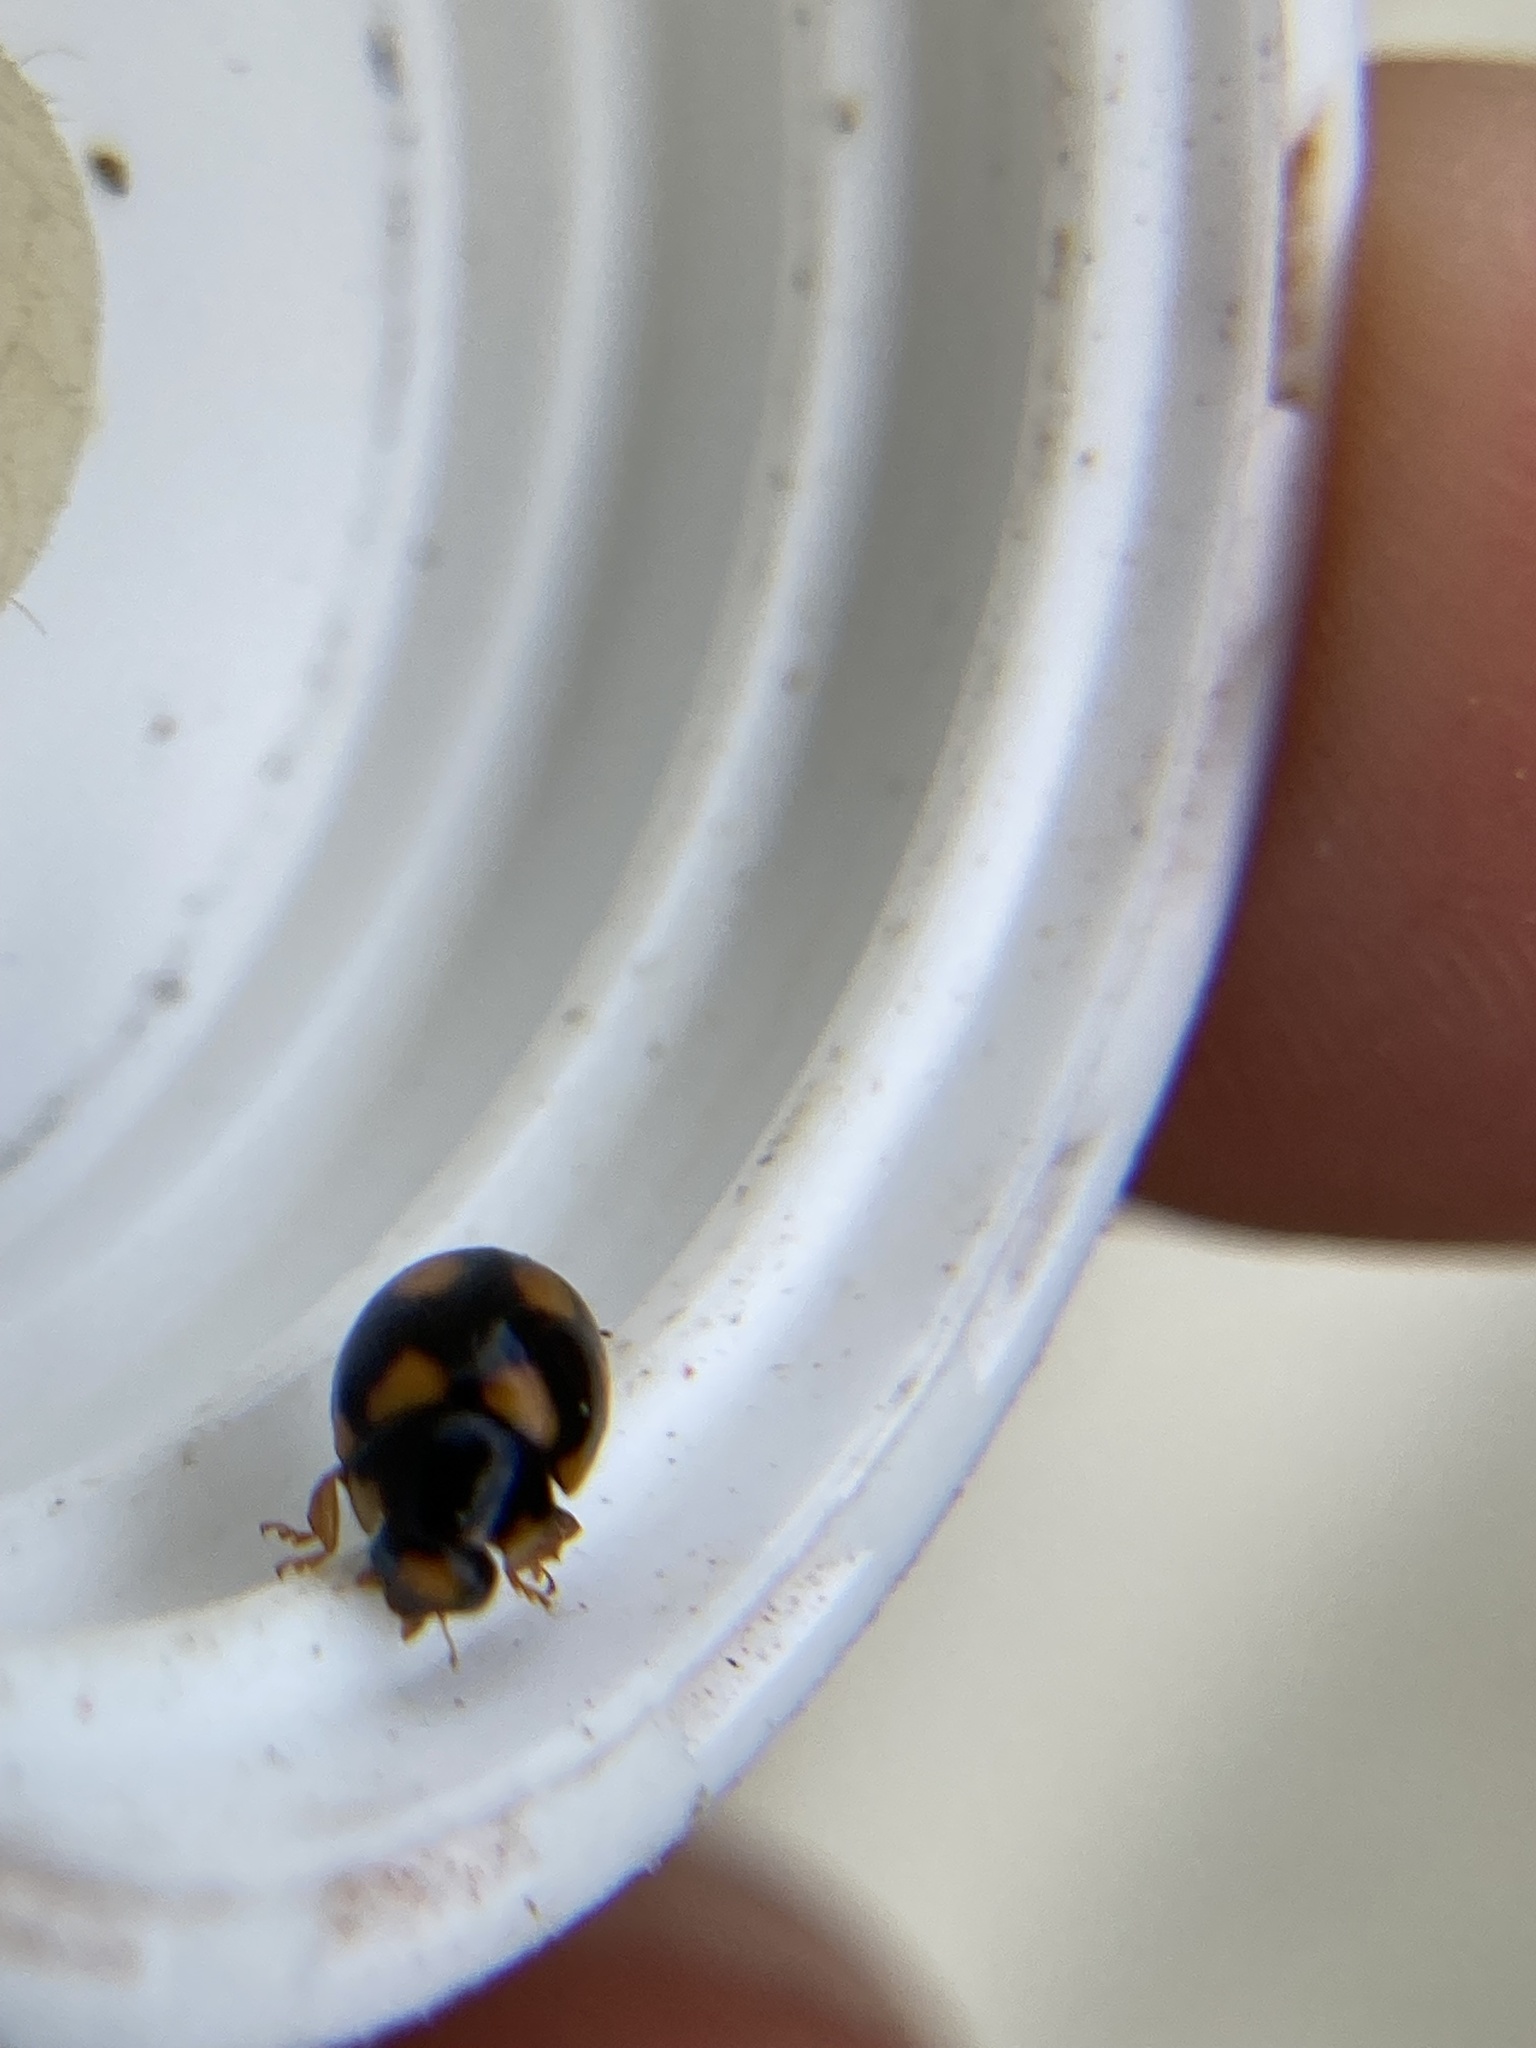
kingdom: Animalia
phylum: Arthropoda
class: Insecta
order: Coleoptera
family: Coccinellidae
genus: Brachiacantha
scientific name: Brachiacantha ursina
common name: Ursine spurleg lady beetle
